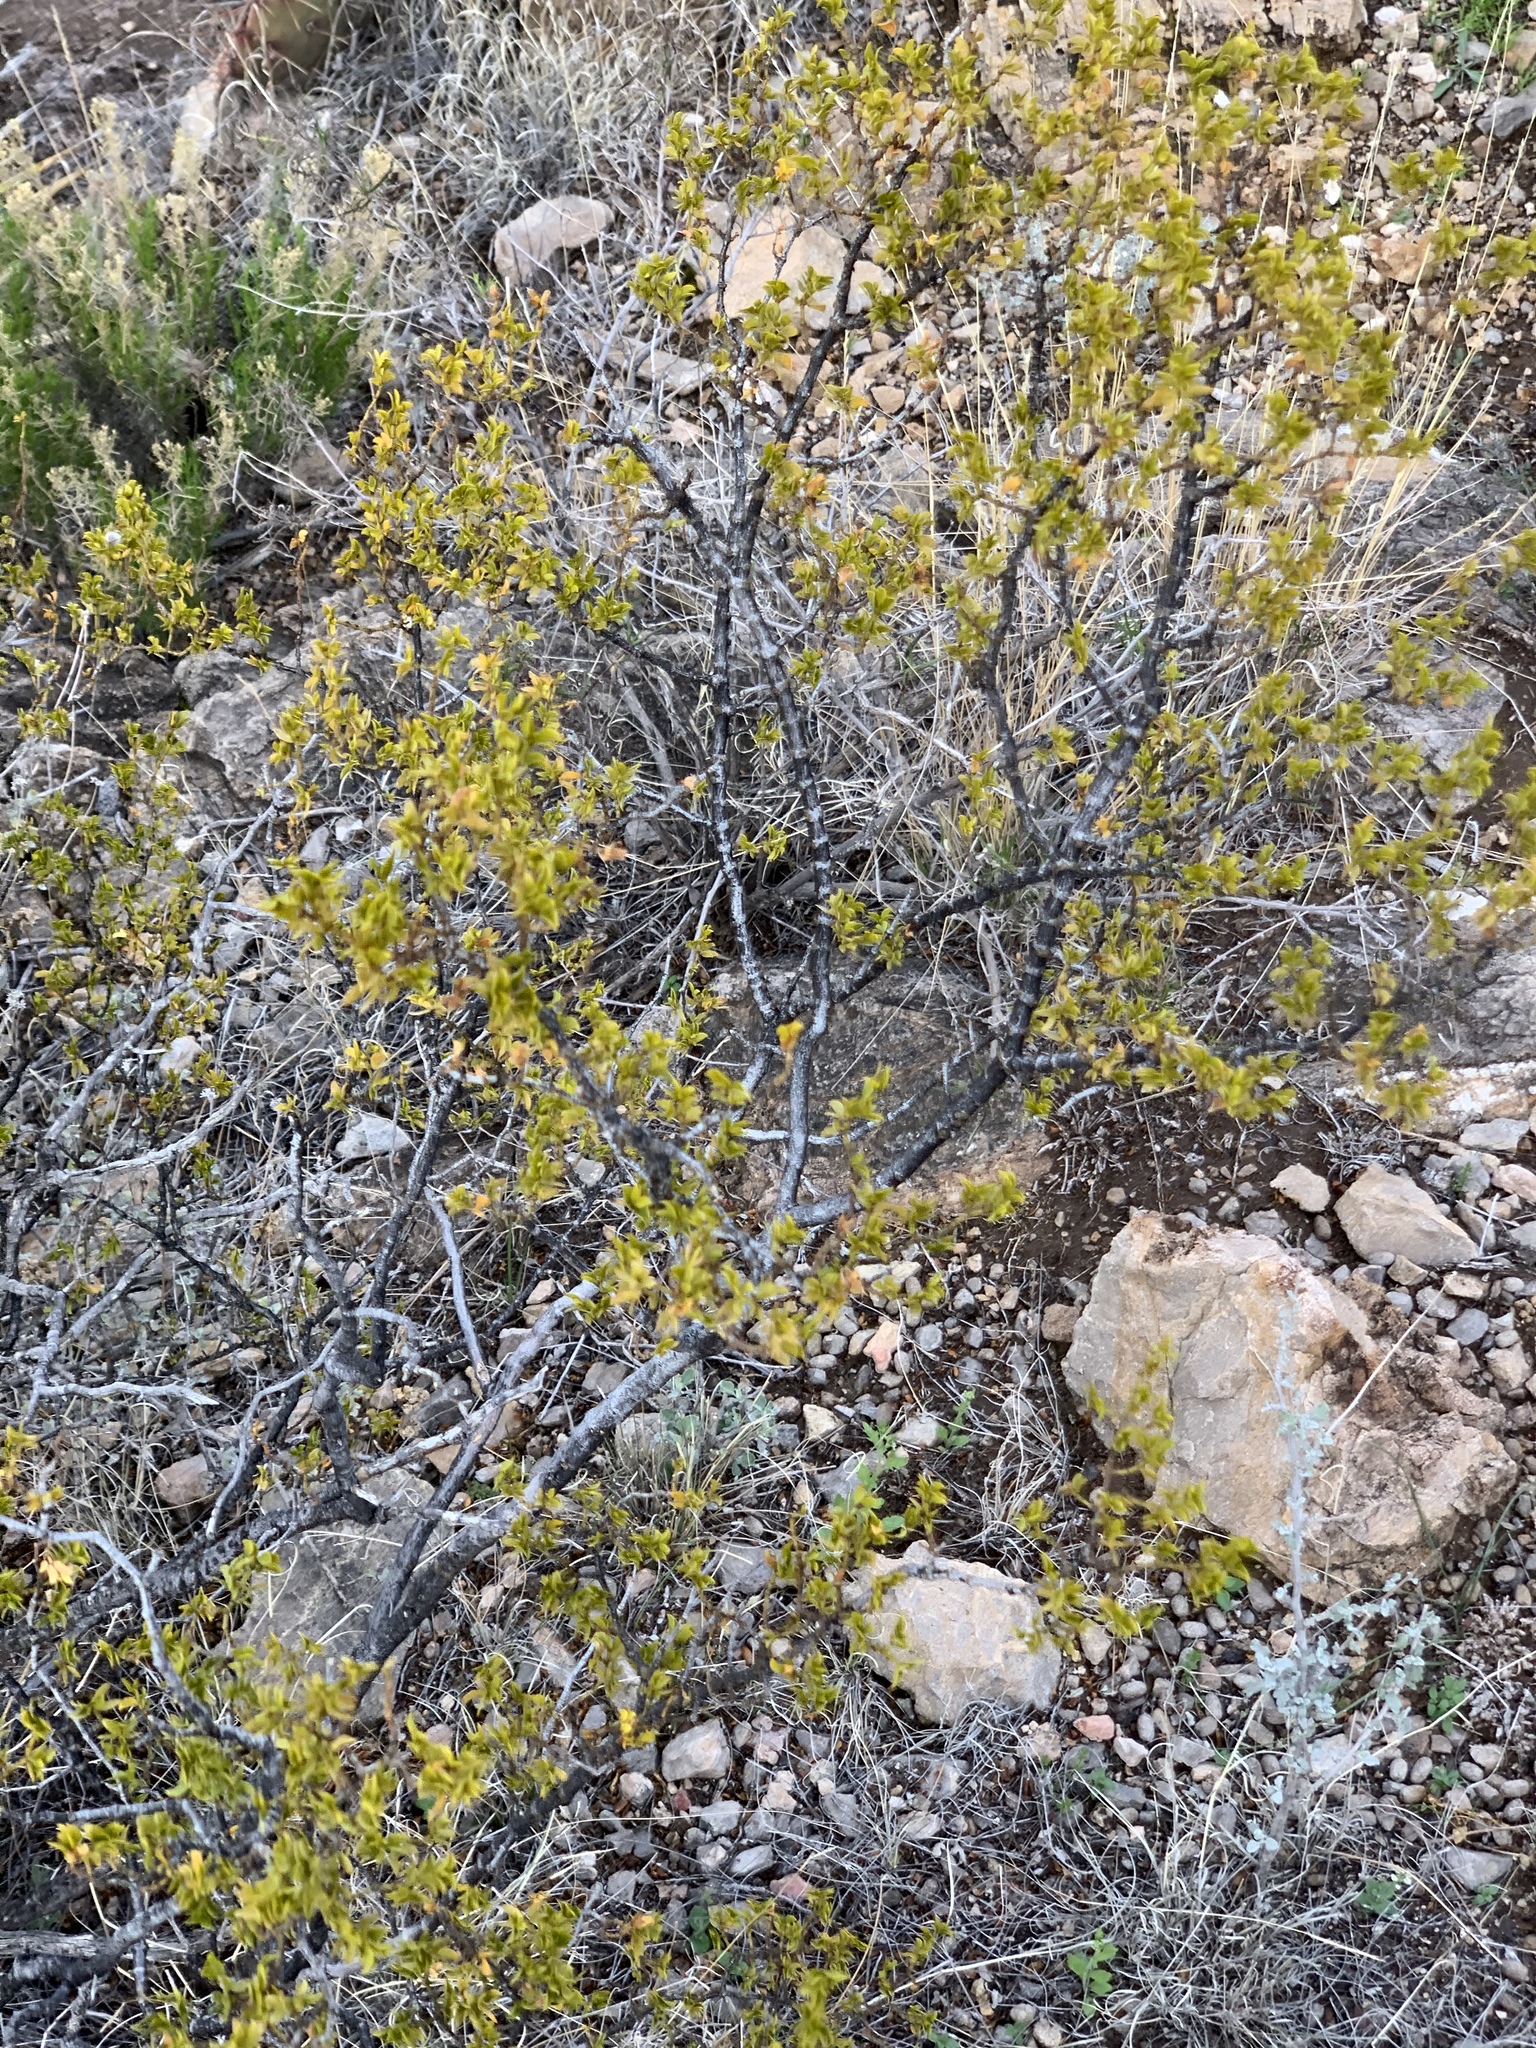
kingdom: Plantae
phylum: Tracheophyta
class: Magnoliopsida
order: Zygophyllales
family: Zygophyllaceae
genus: Larrea
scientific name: Larrea tridentata
